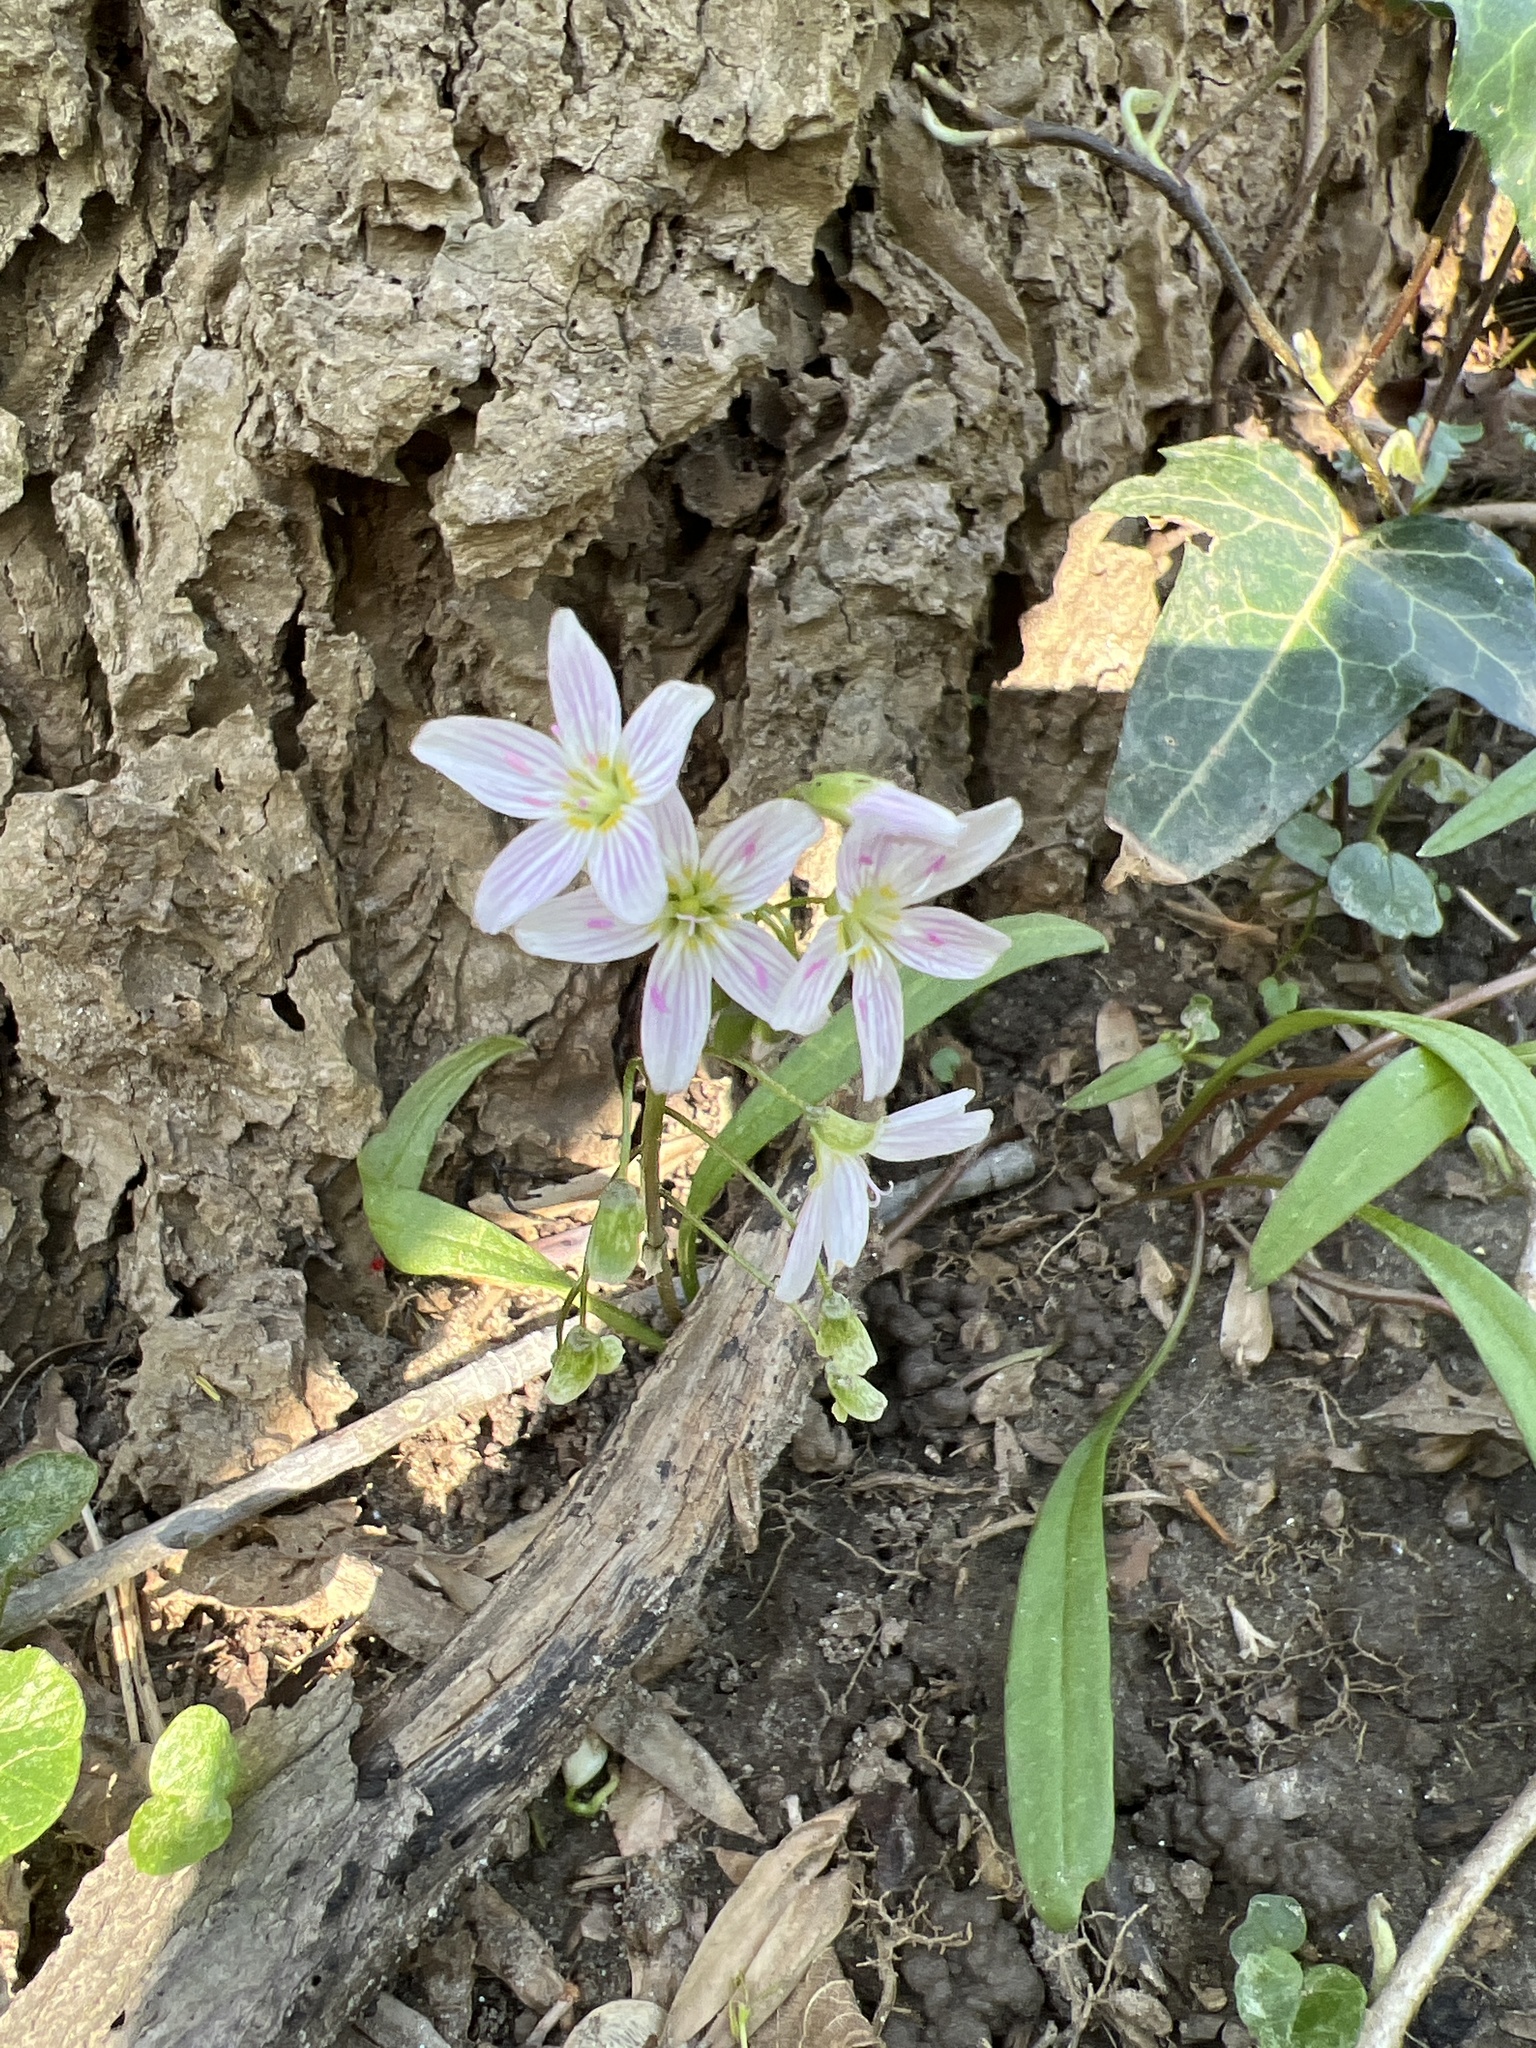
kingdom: Plantae
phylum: Tracheophyta
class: Magnoliopsida
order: Caryophyllales
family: Montiaceae
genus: Claytonia
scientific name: Claytonia virginica
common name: Virginia springbeauty
